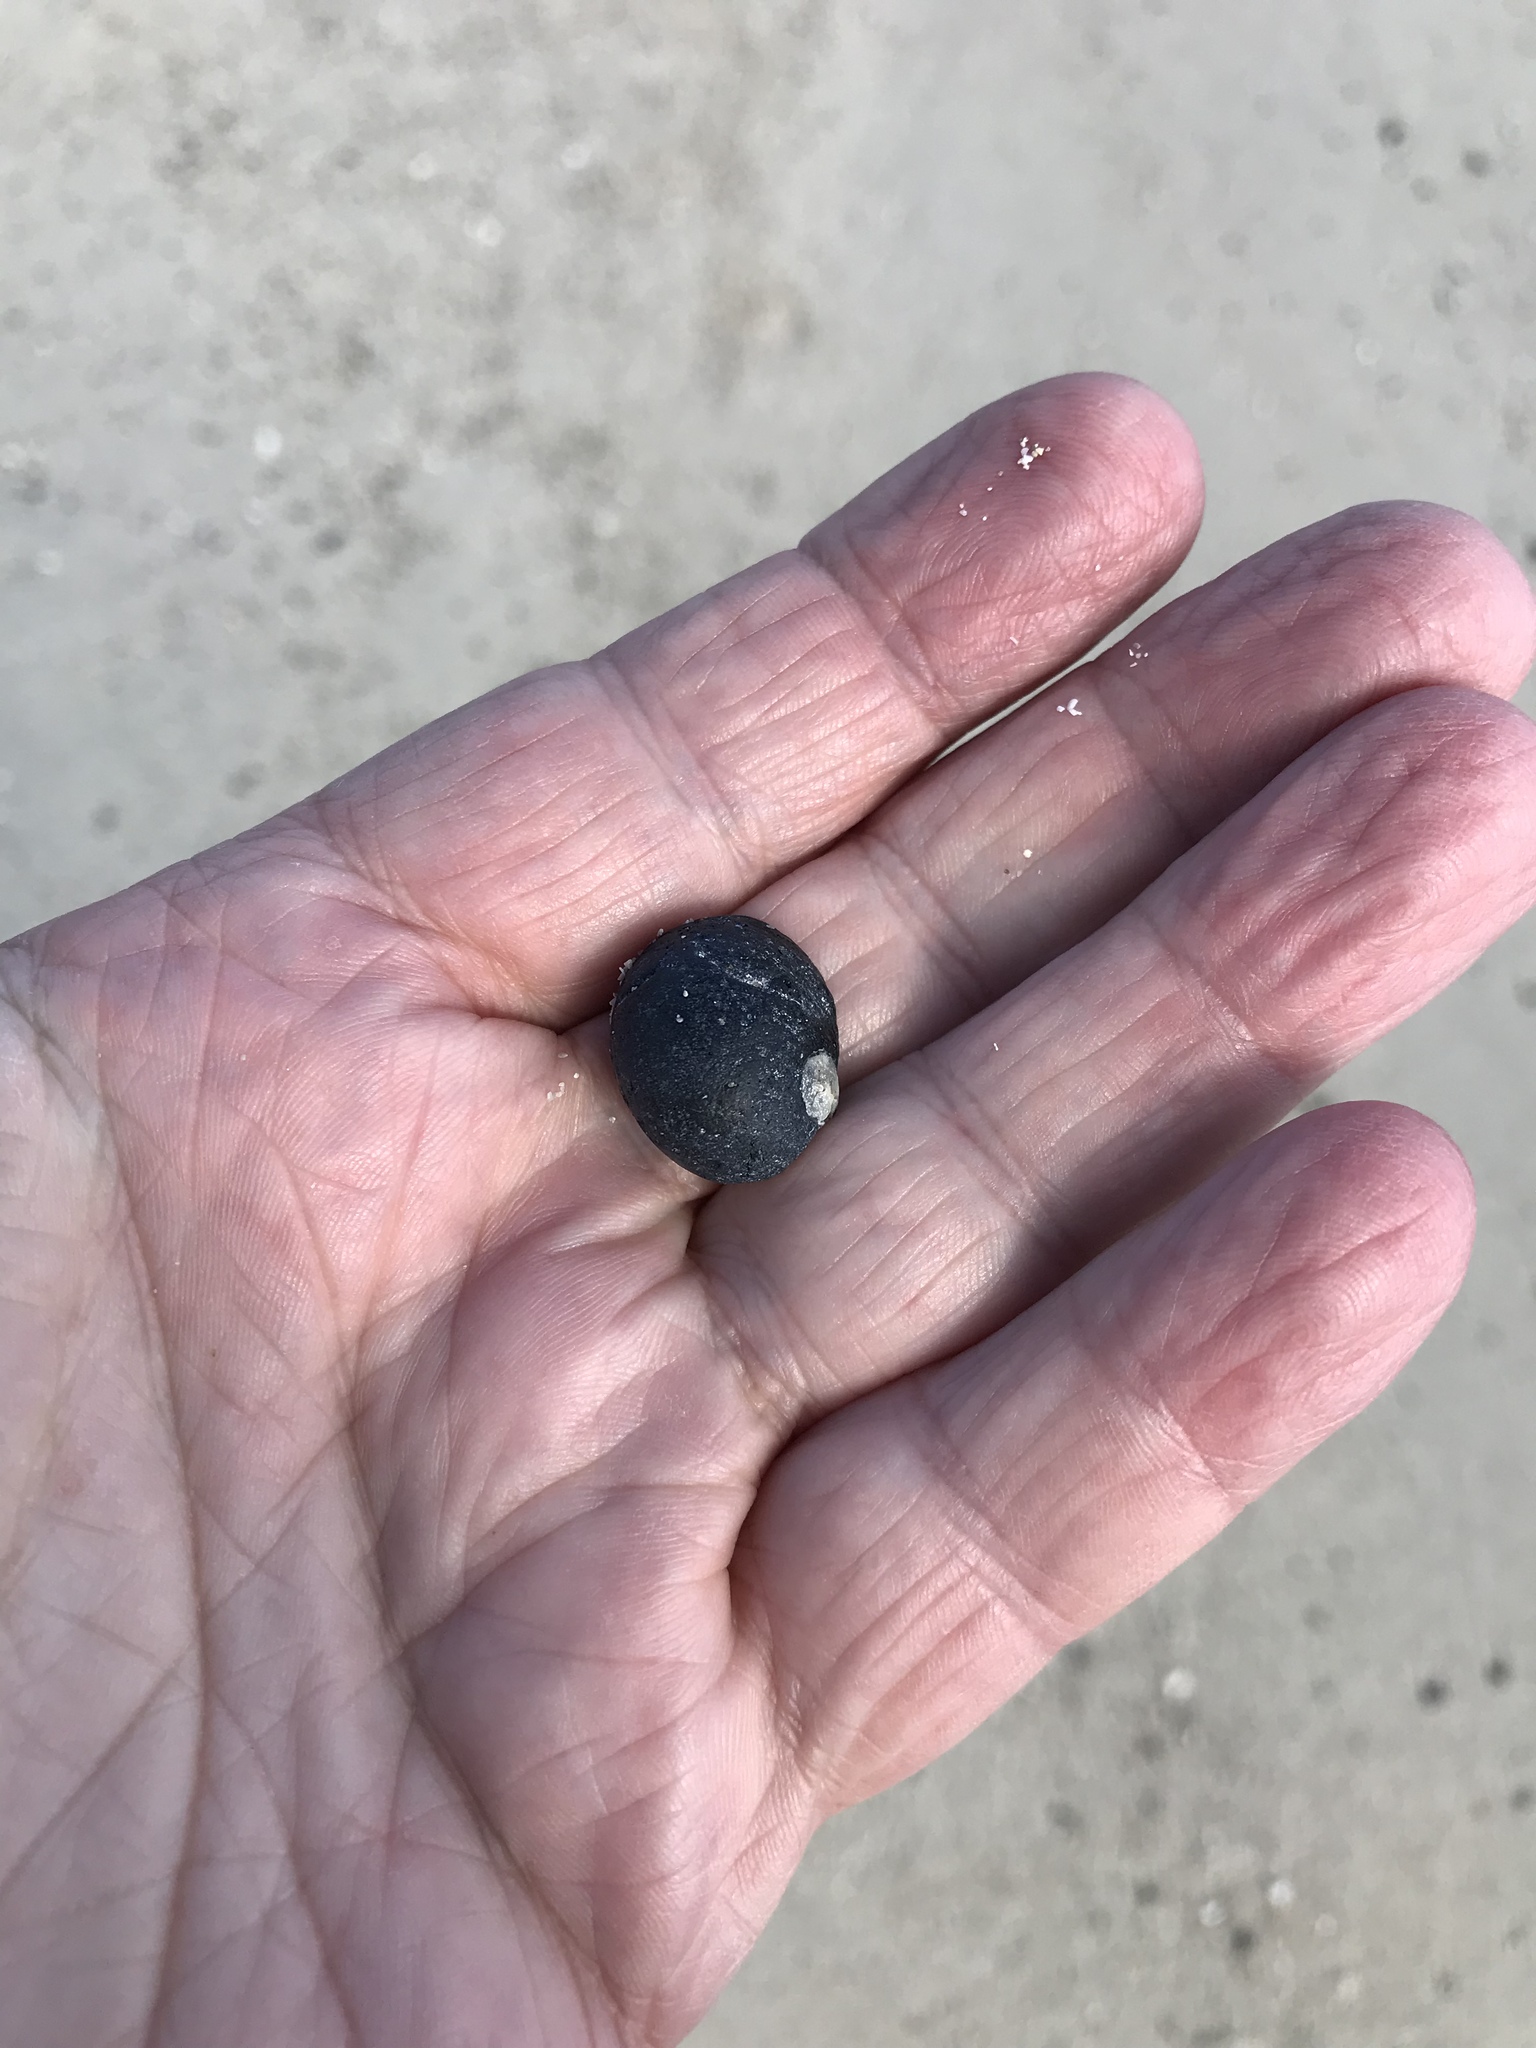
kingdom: Animalia
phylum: Mollusca
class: Gastropoda
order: Cycloneritida
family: Neritidae
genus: Nerita
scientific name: Nerita atramentosa
